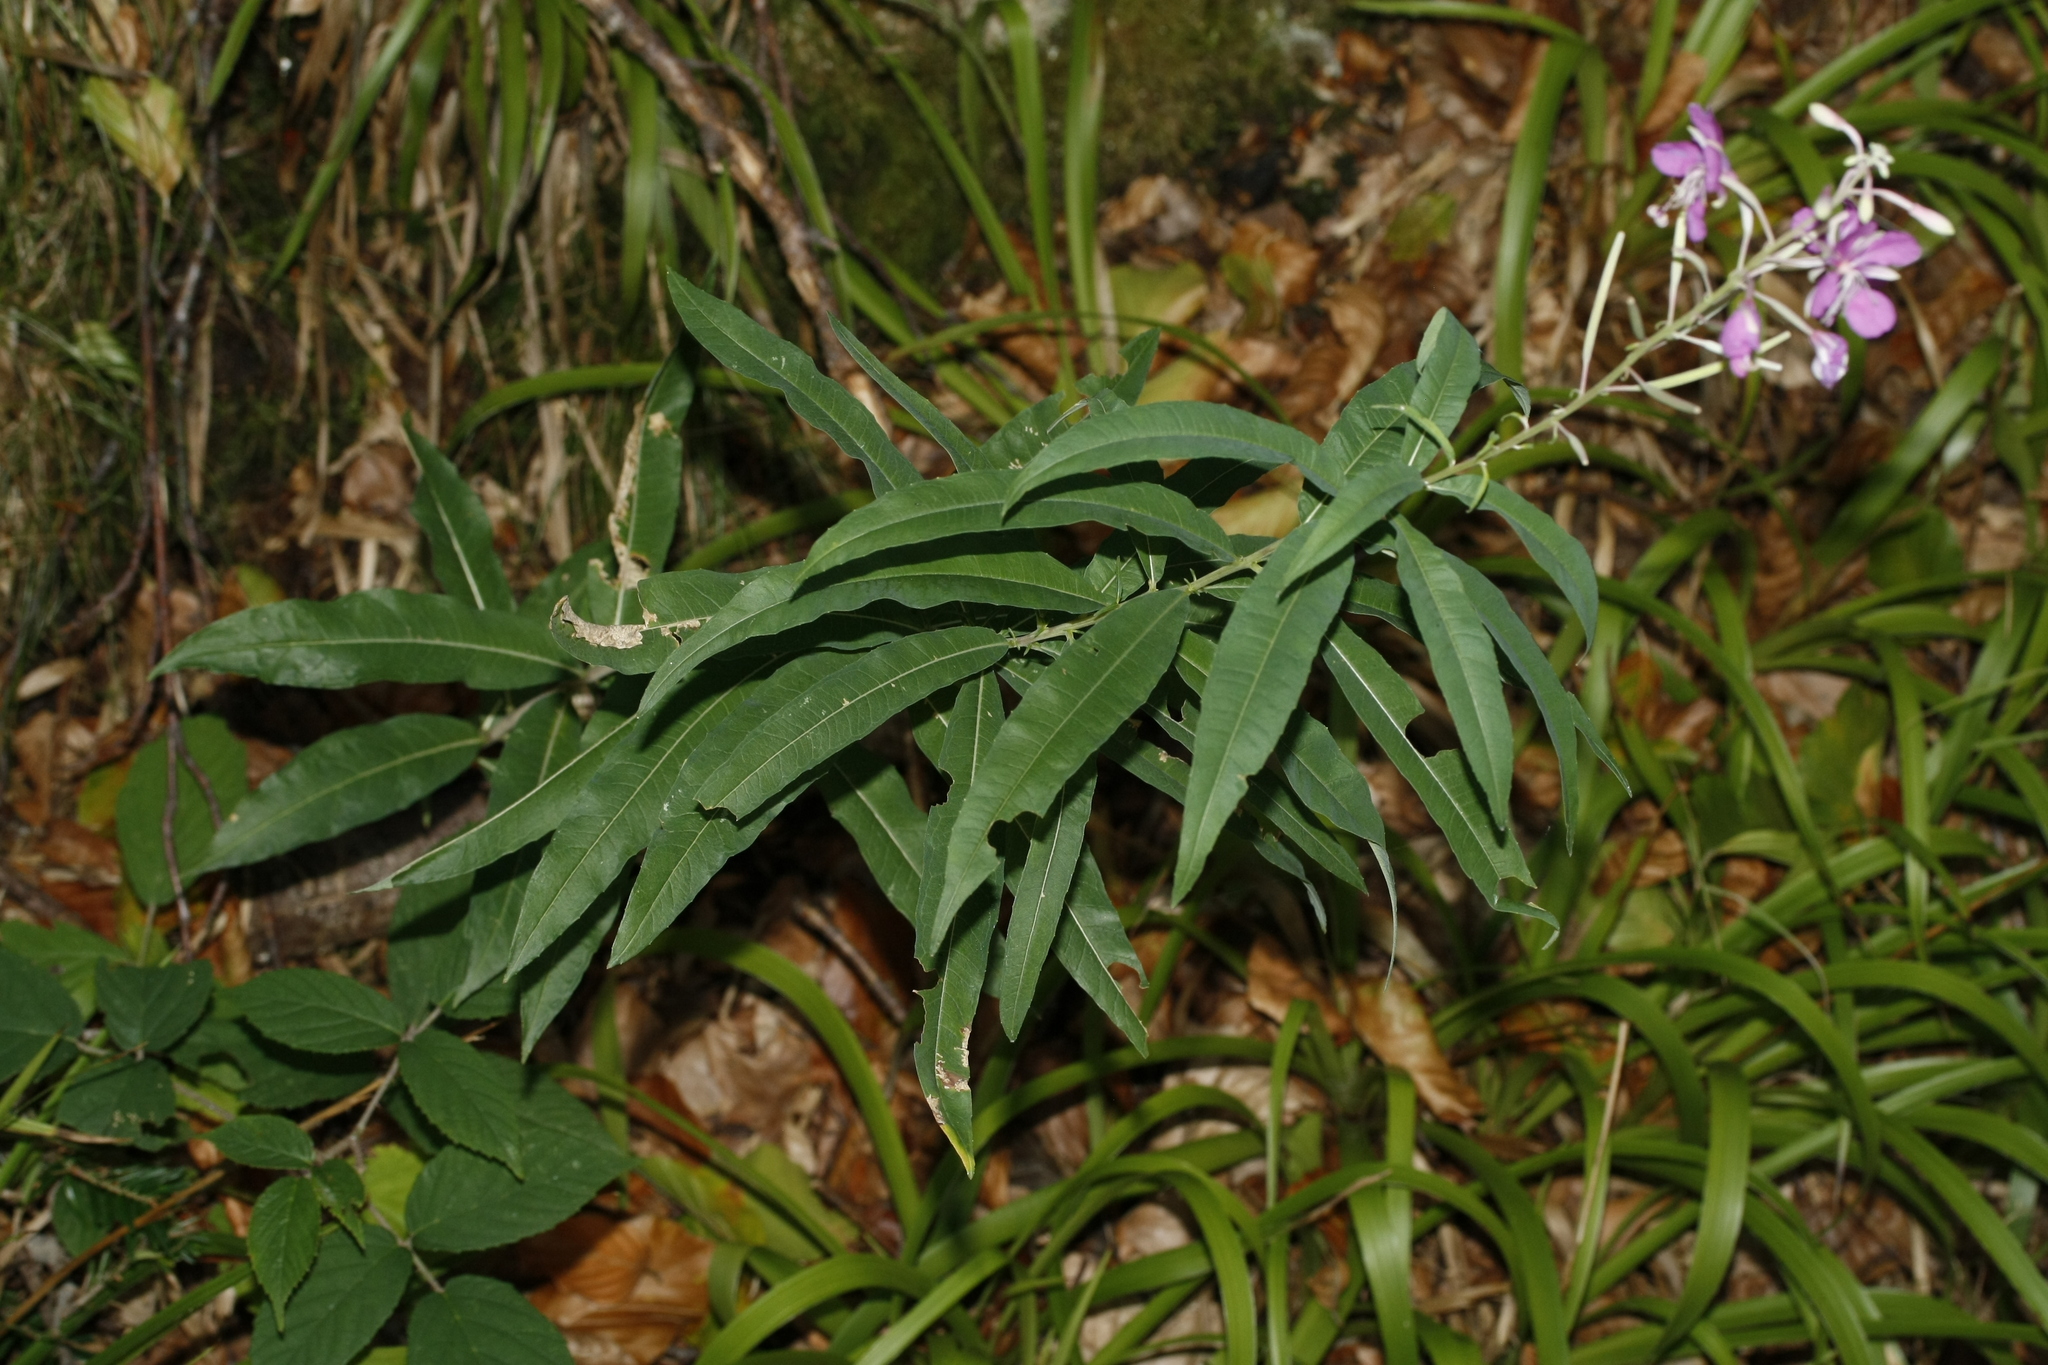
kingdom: Plantae
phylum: Tracheophyta
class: Magnoliopsida
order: Myrtales
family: Onagraceae
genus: Chamaenerion
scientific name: Chamaenerion angustifolium
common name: Fireweed
